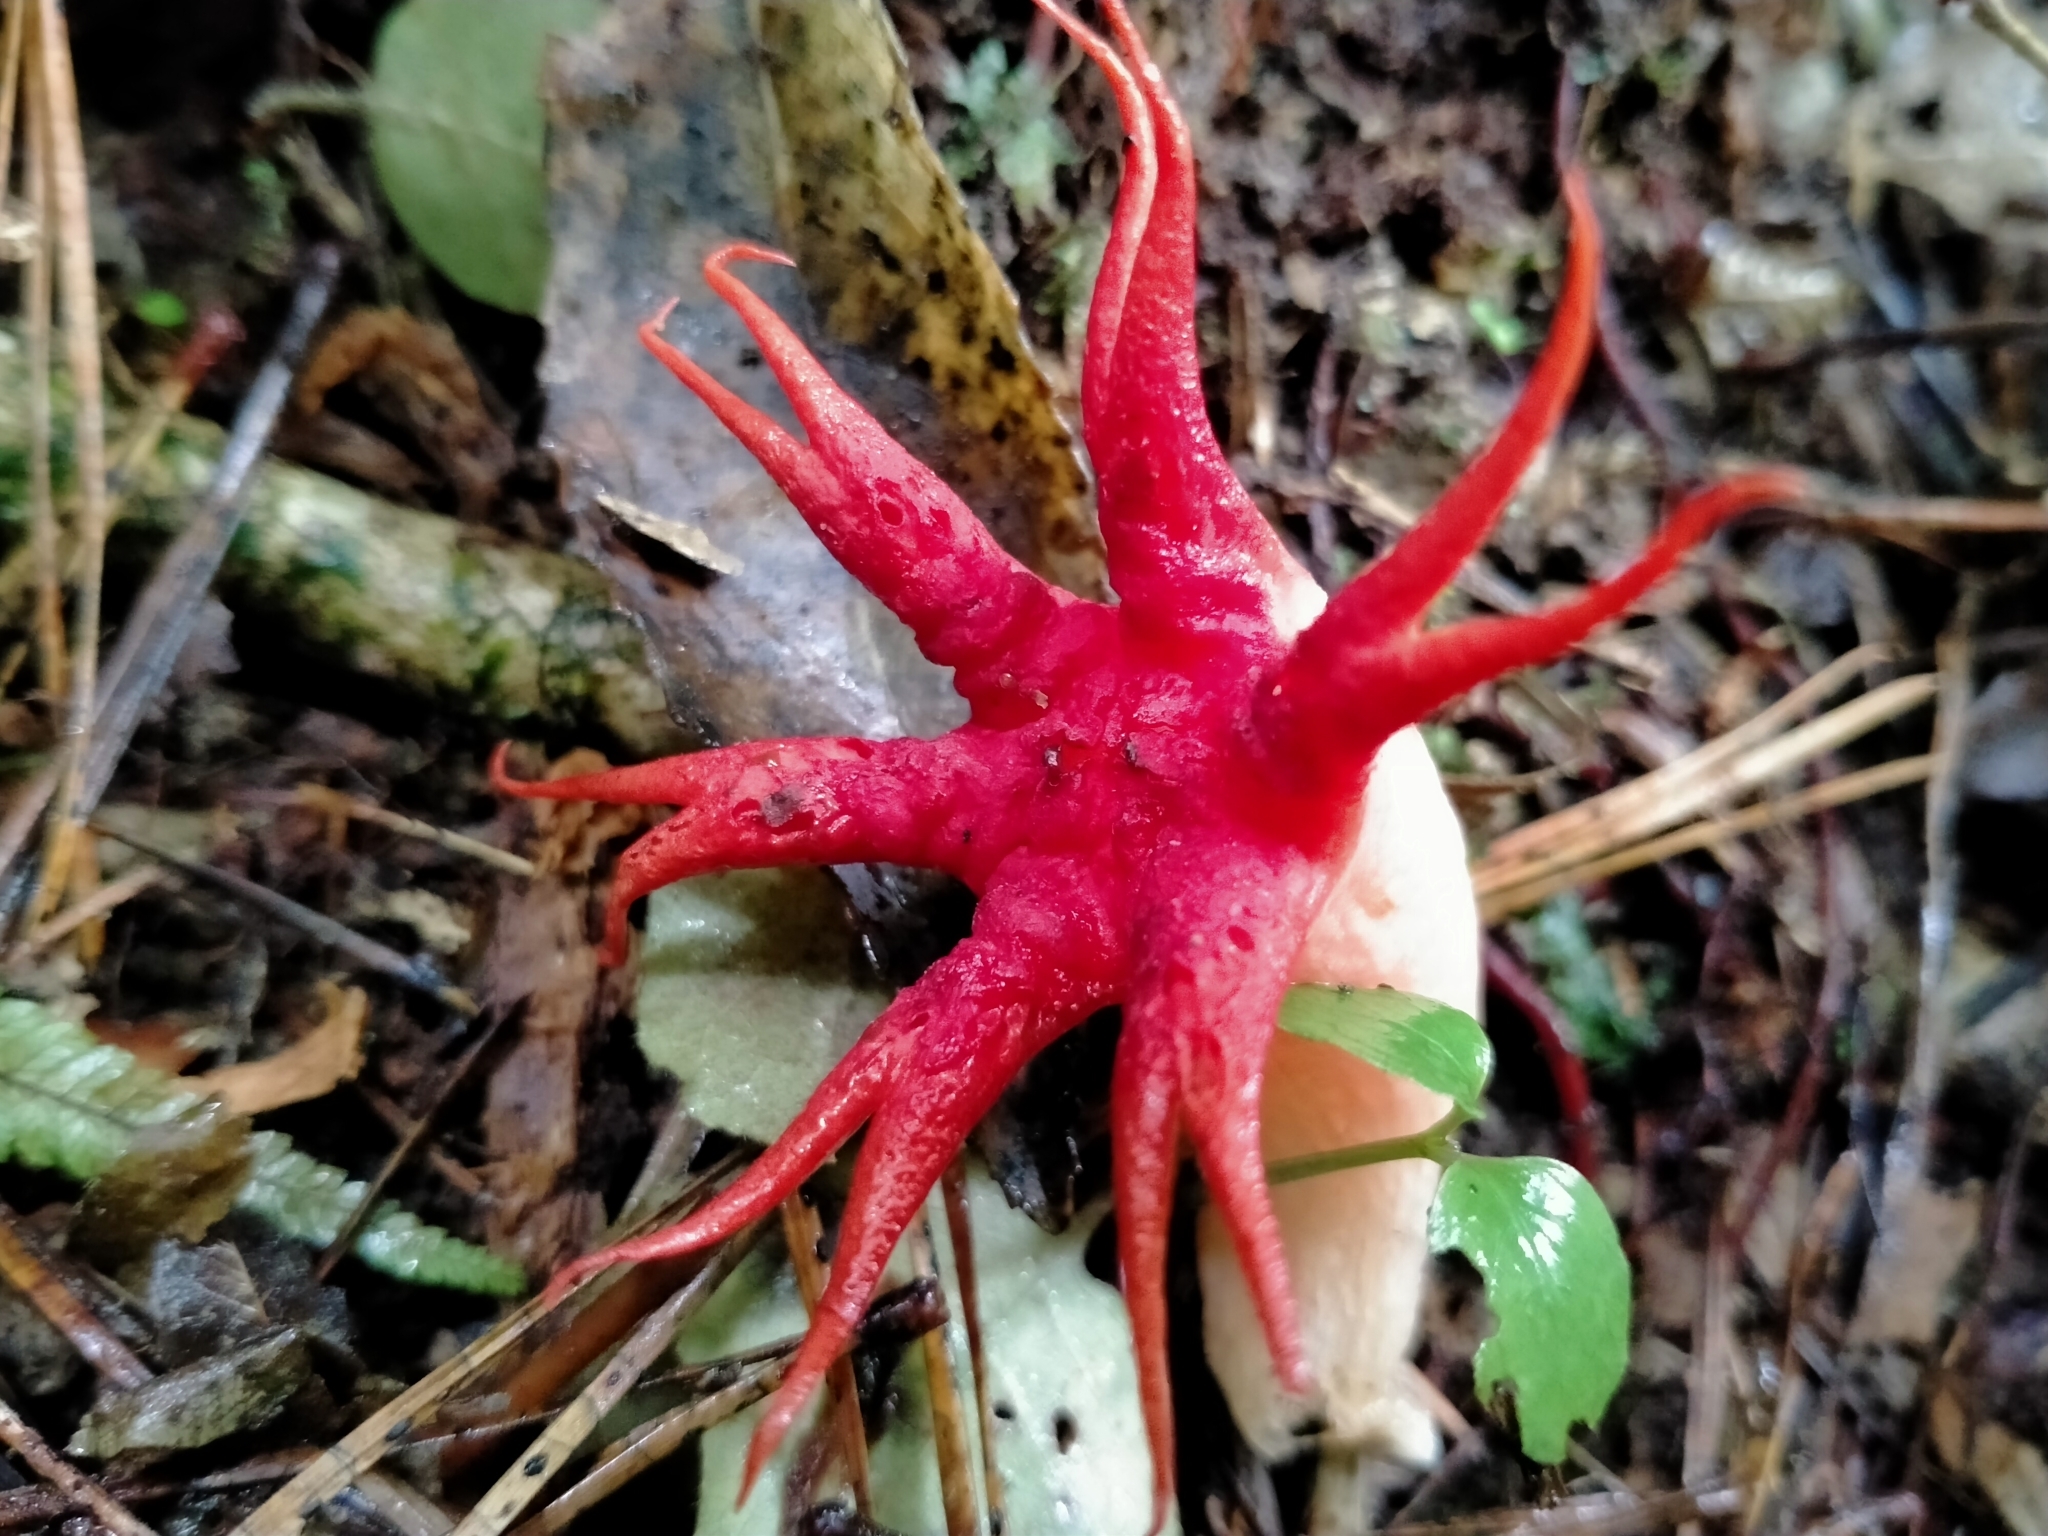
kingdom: Fungi
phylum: Basidiomycota
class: Agaricomycetes
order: Phallales
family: Phallaceae
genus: Aseroe
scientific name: Aseroe rubra
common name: Starfish fungus
